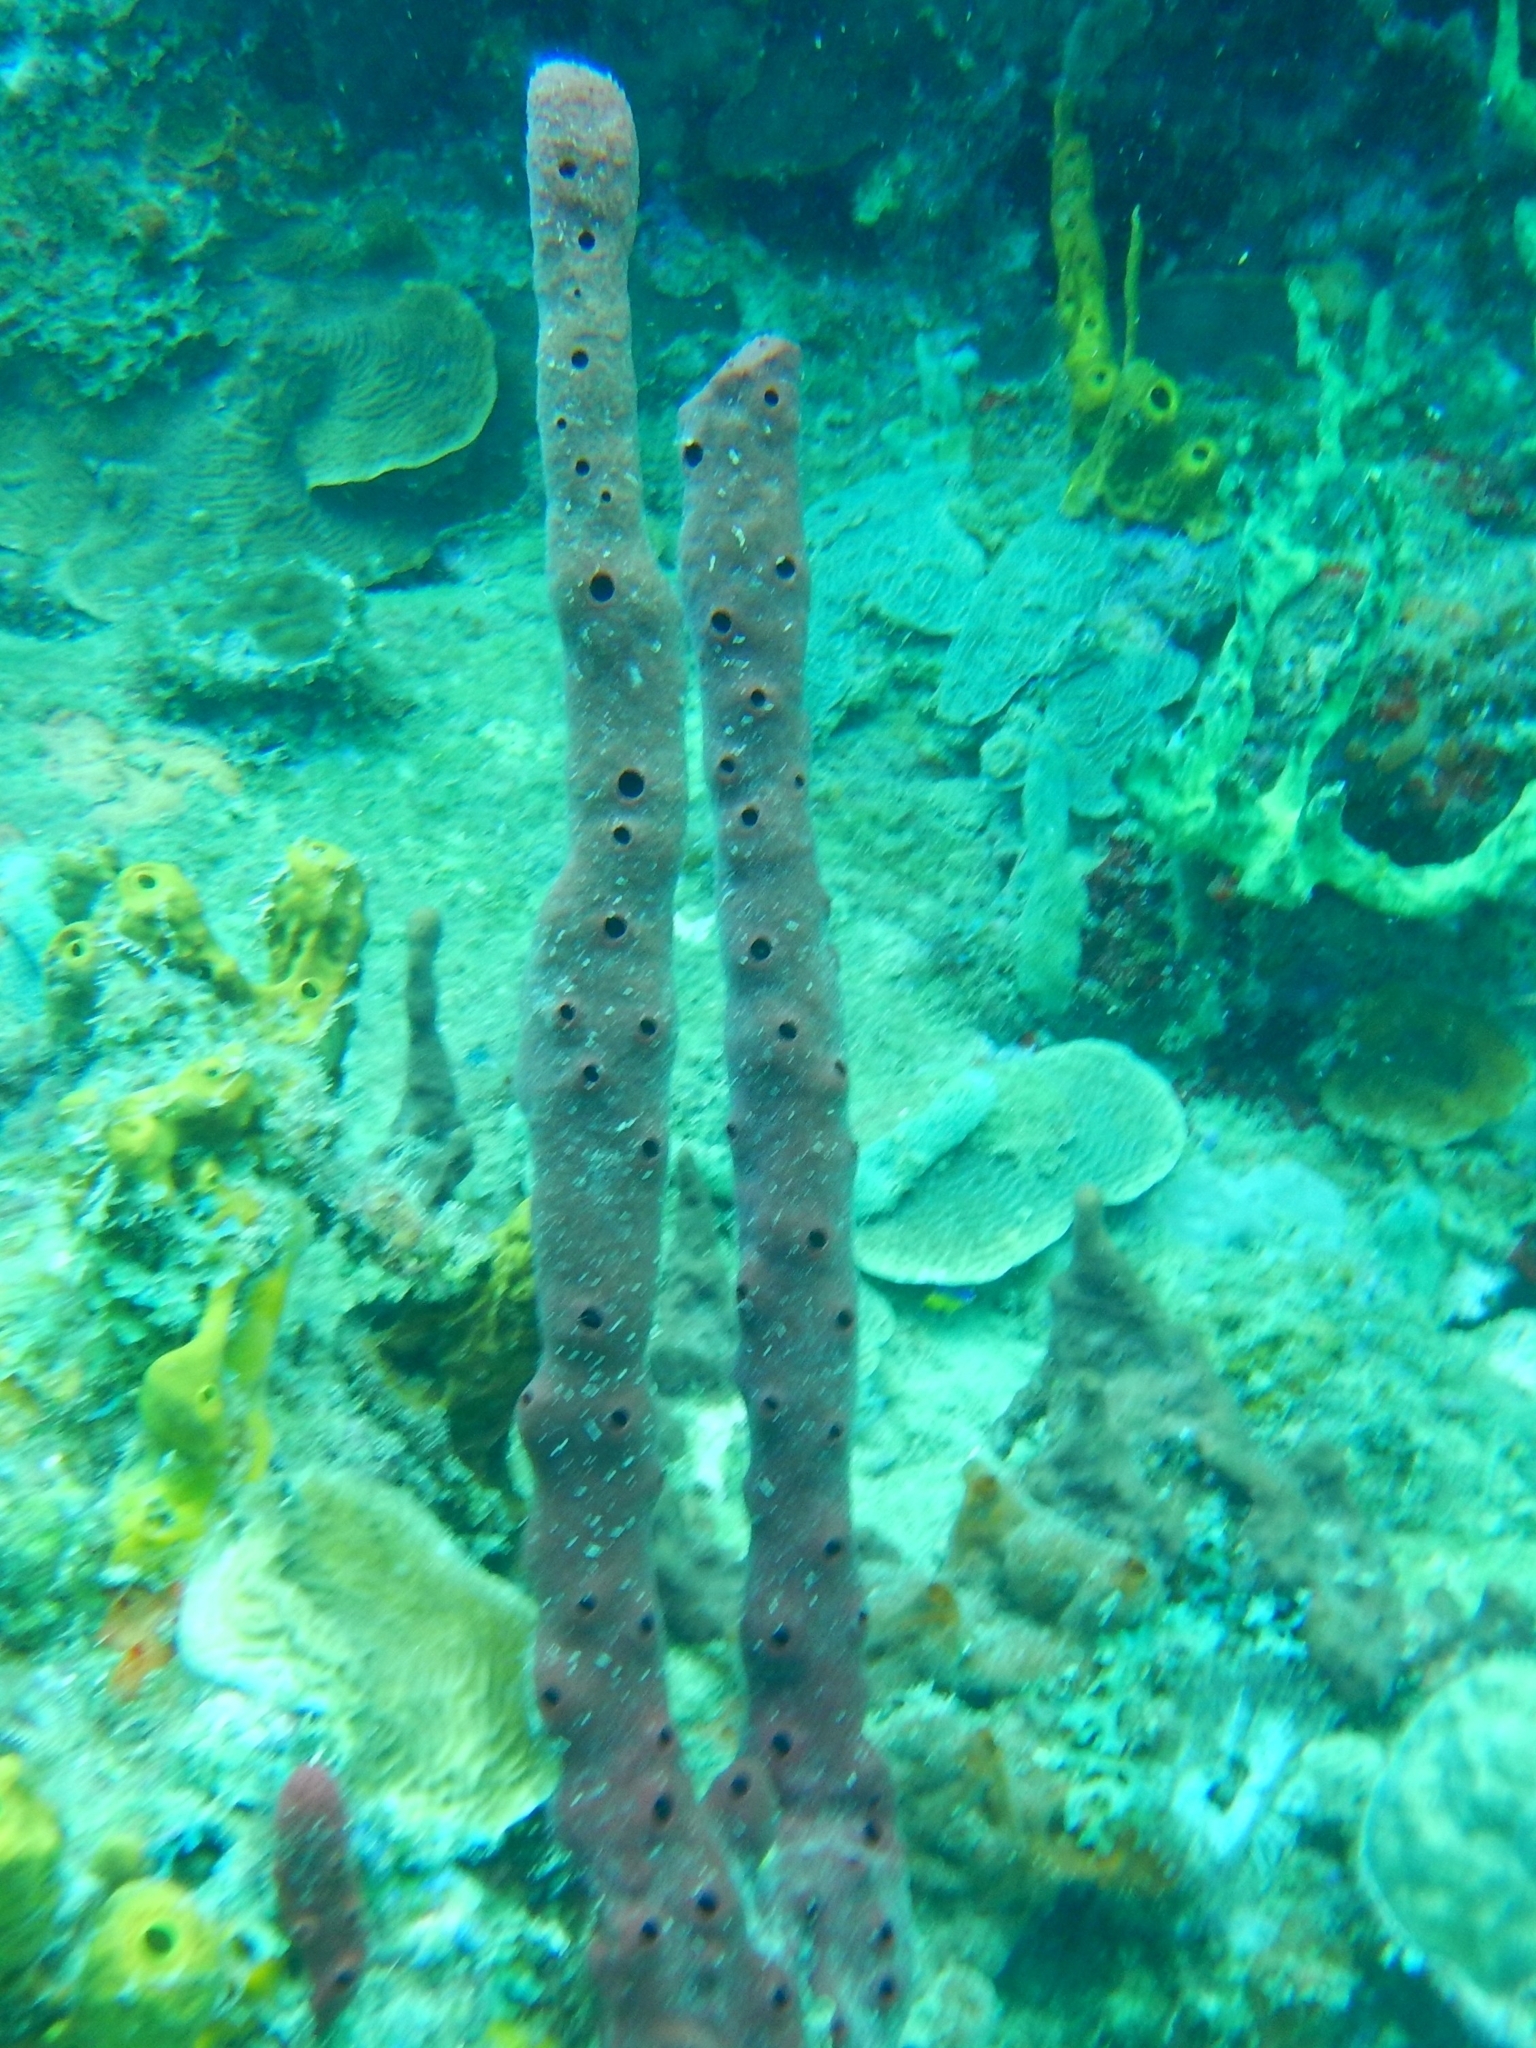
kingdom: Animalia
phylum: Porifera
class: Demospongiae
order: Haplosclerida
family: Niphatidae
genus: Amphimedon
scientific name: Amphimedon compressa
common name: Red sponge
